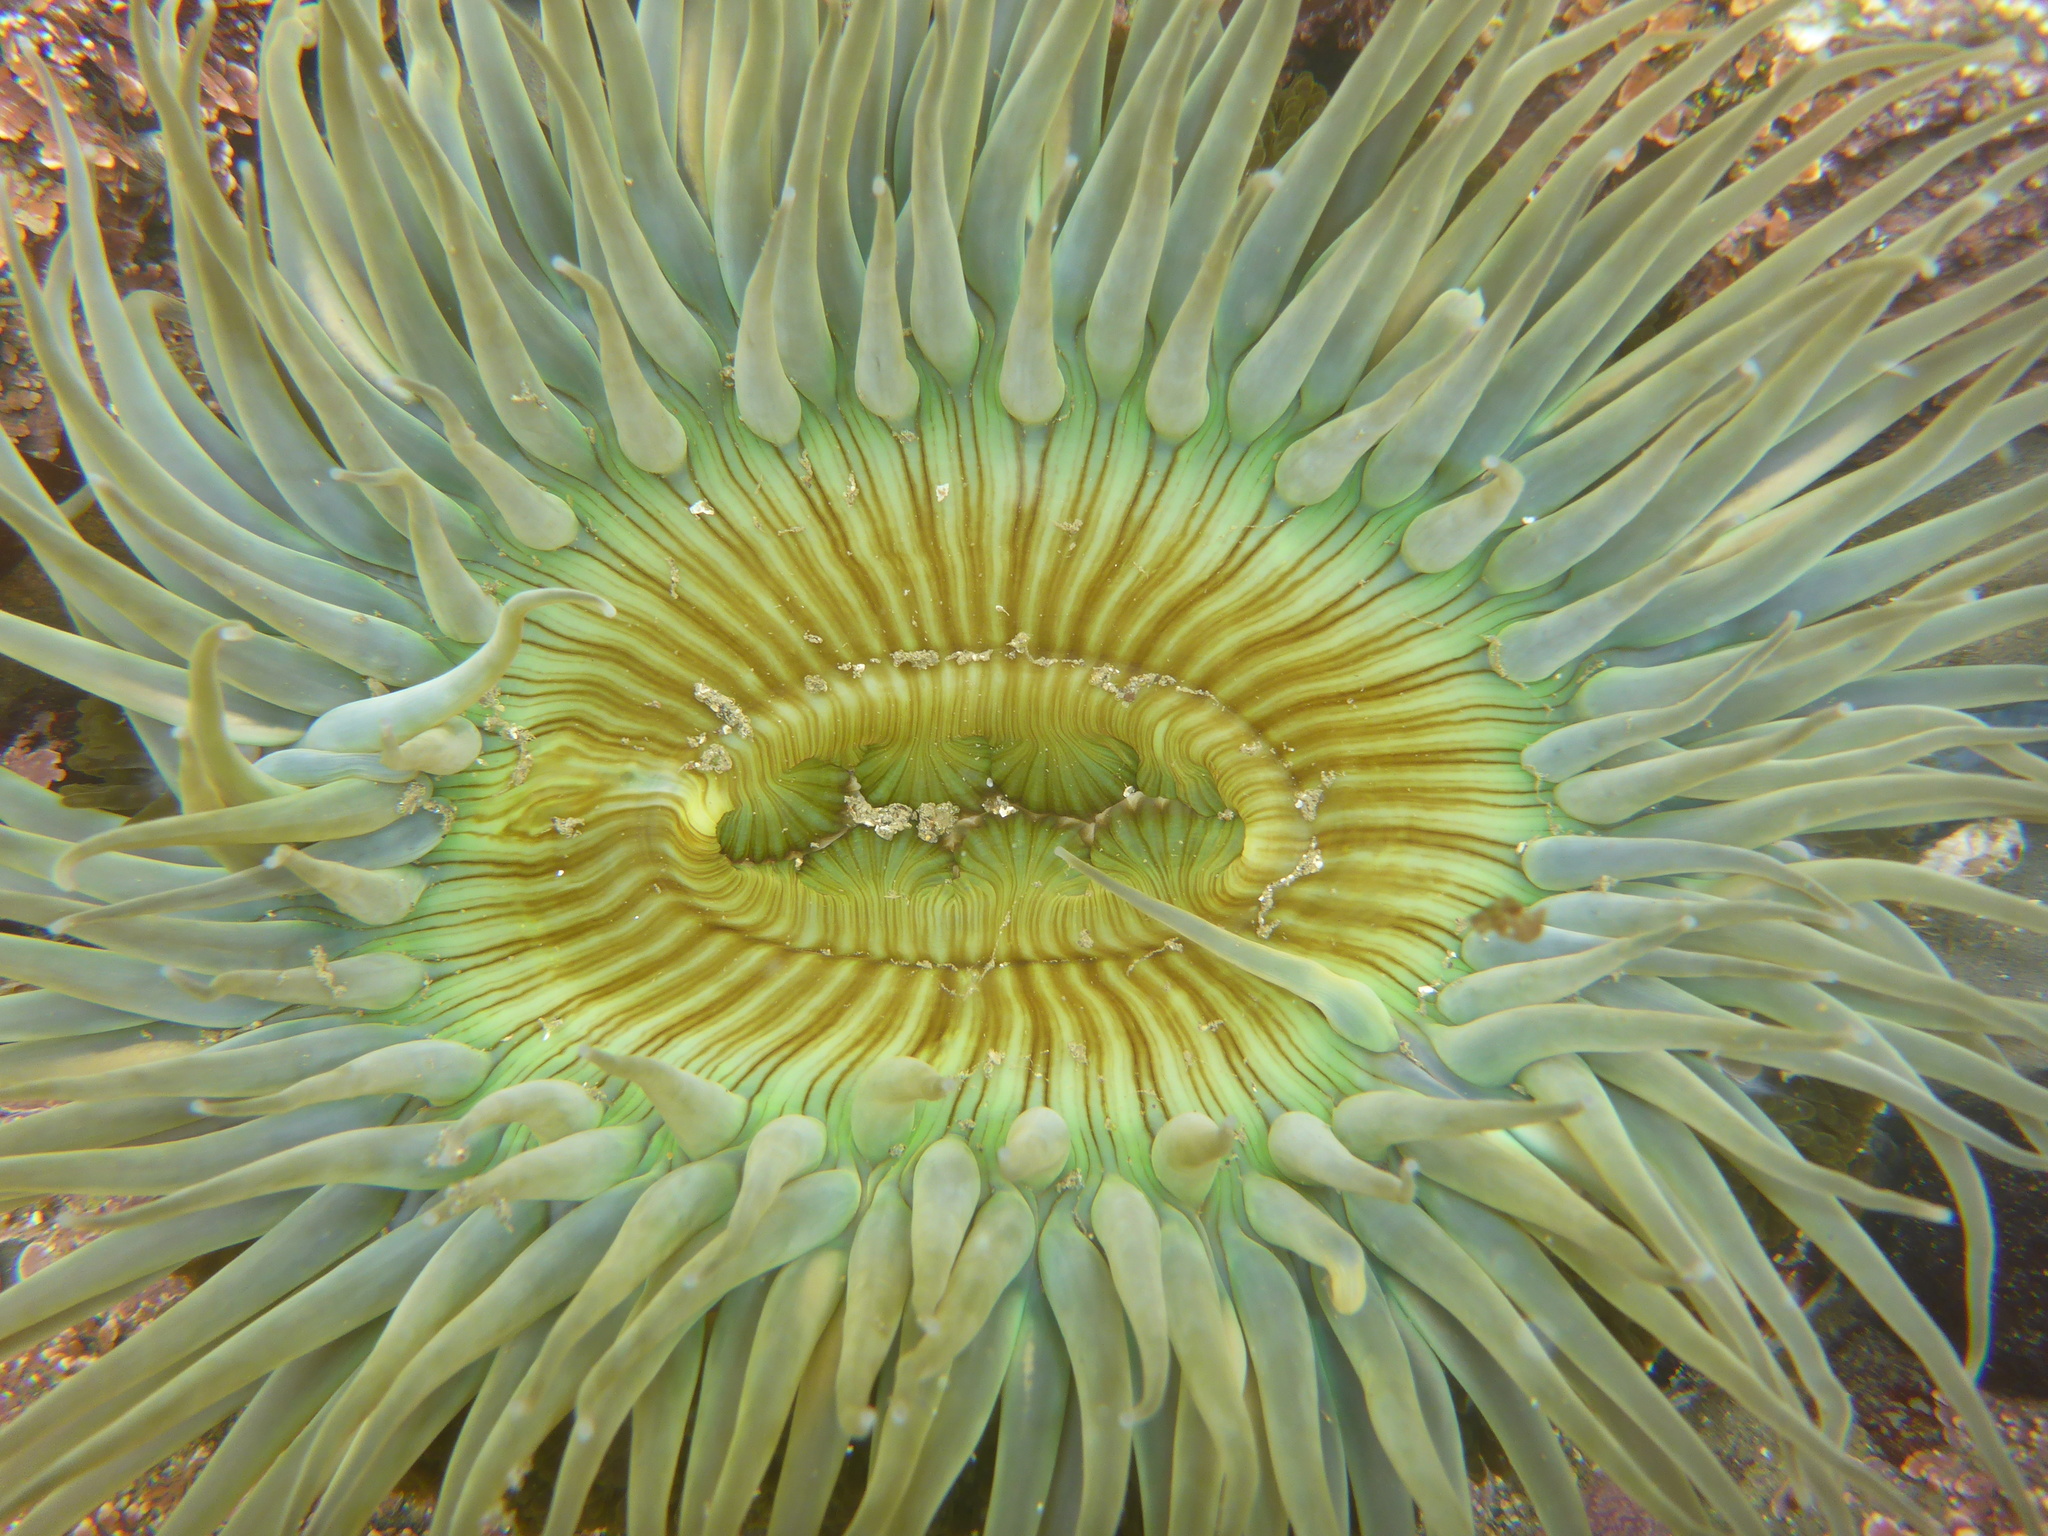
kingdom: Animalia
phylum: Cnidaria
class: Anthozoa
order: Actiniaria
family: Actiniidae
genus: Anthopleura
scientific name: Anthopleura sola
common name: Sun anemone
